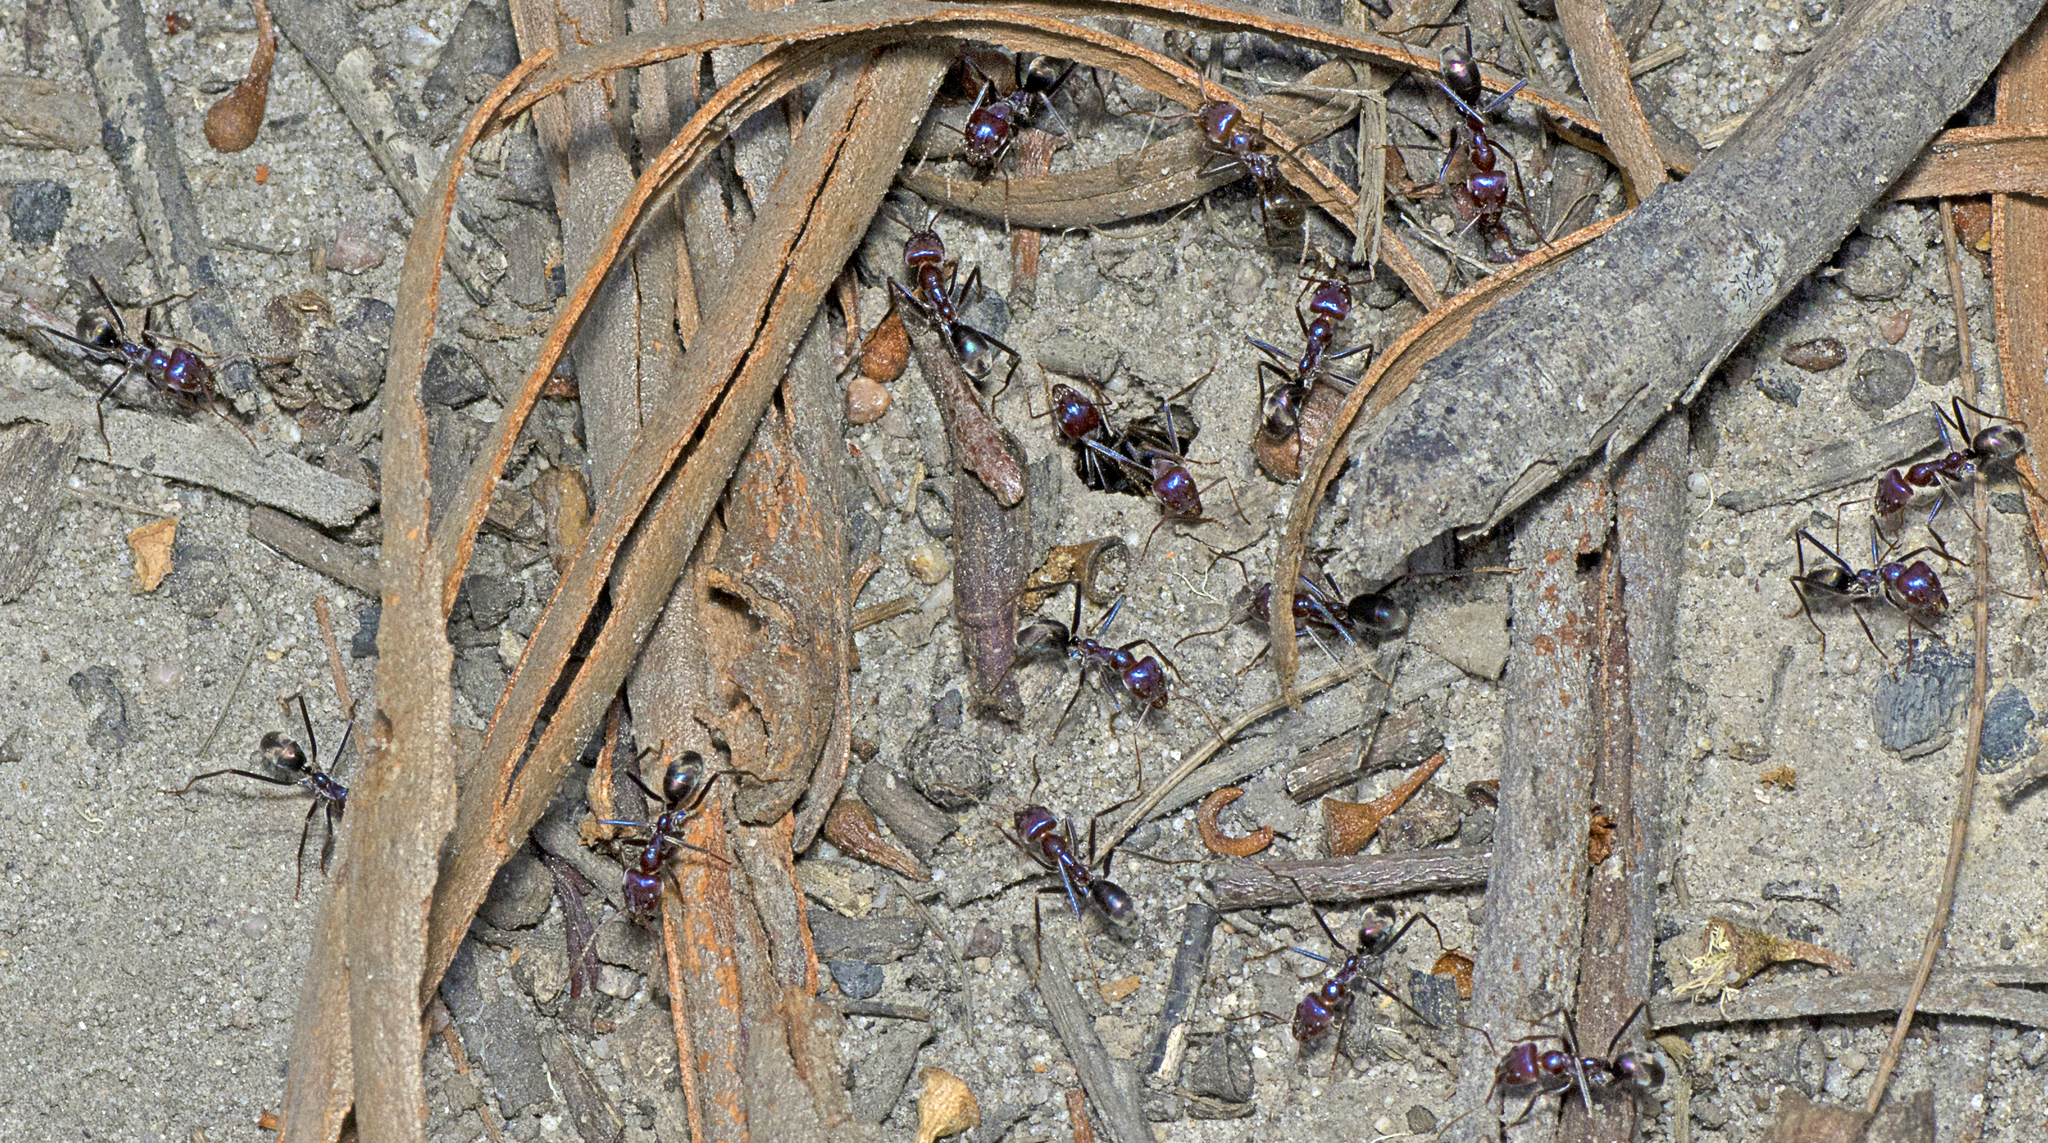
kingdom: Animalia
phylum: Arthropoda
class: Insecta
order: Hymenoptera
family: Formicidae
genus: Iridomyrmex
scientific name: Iridomyrmex purpureus
